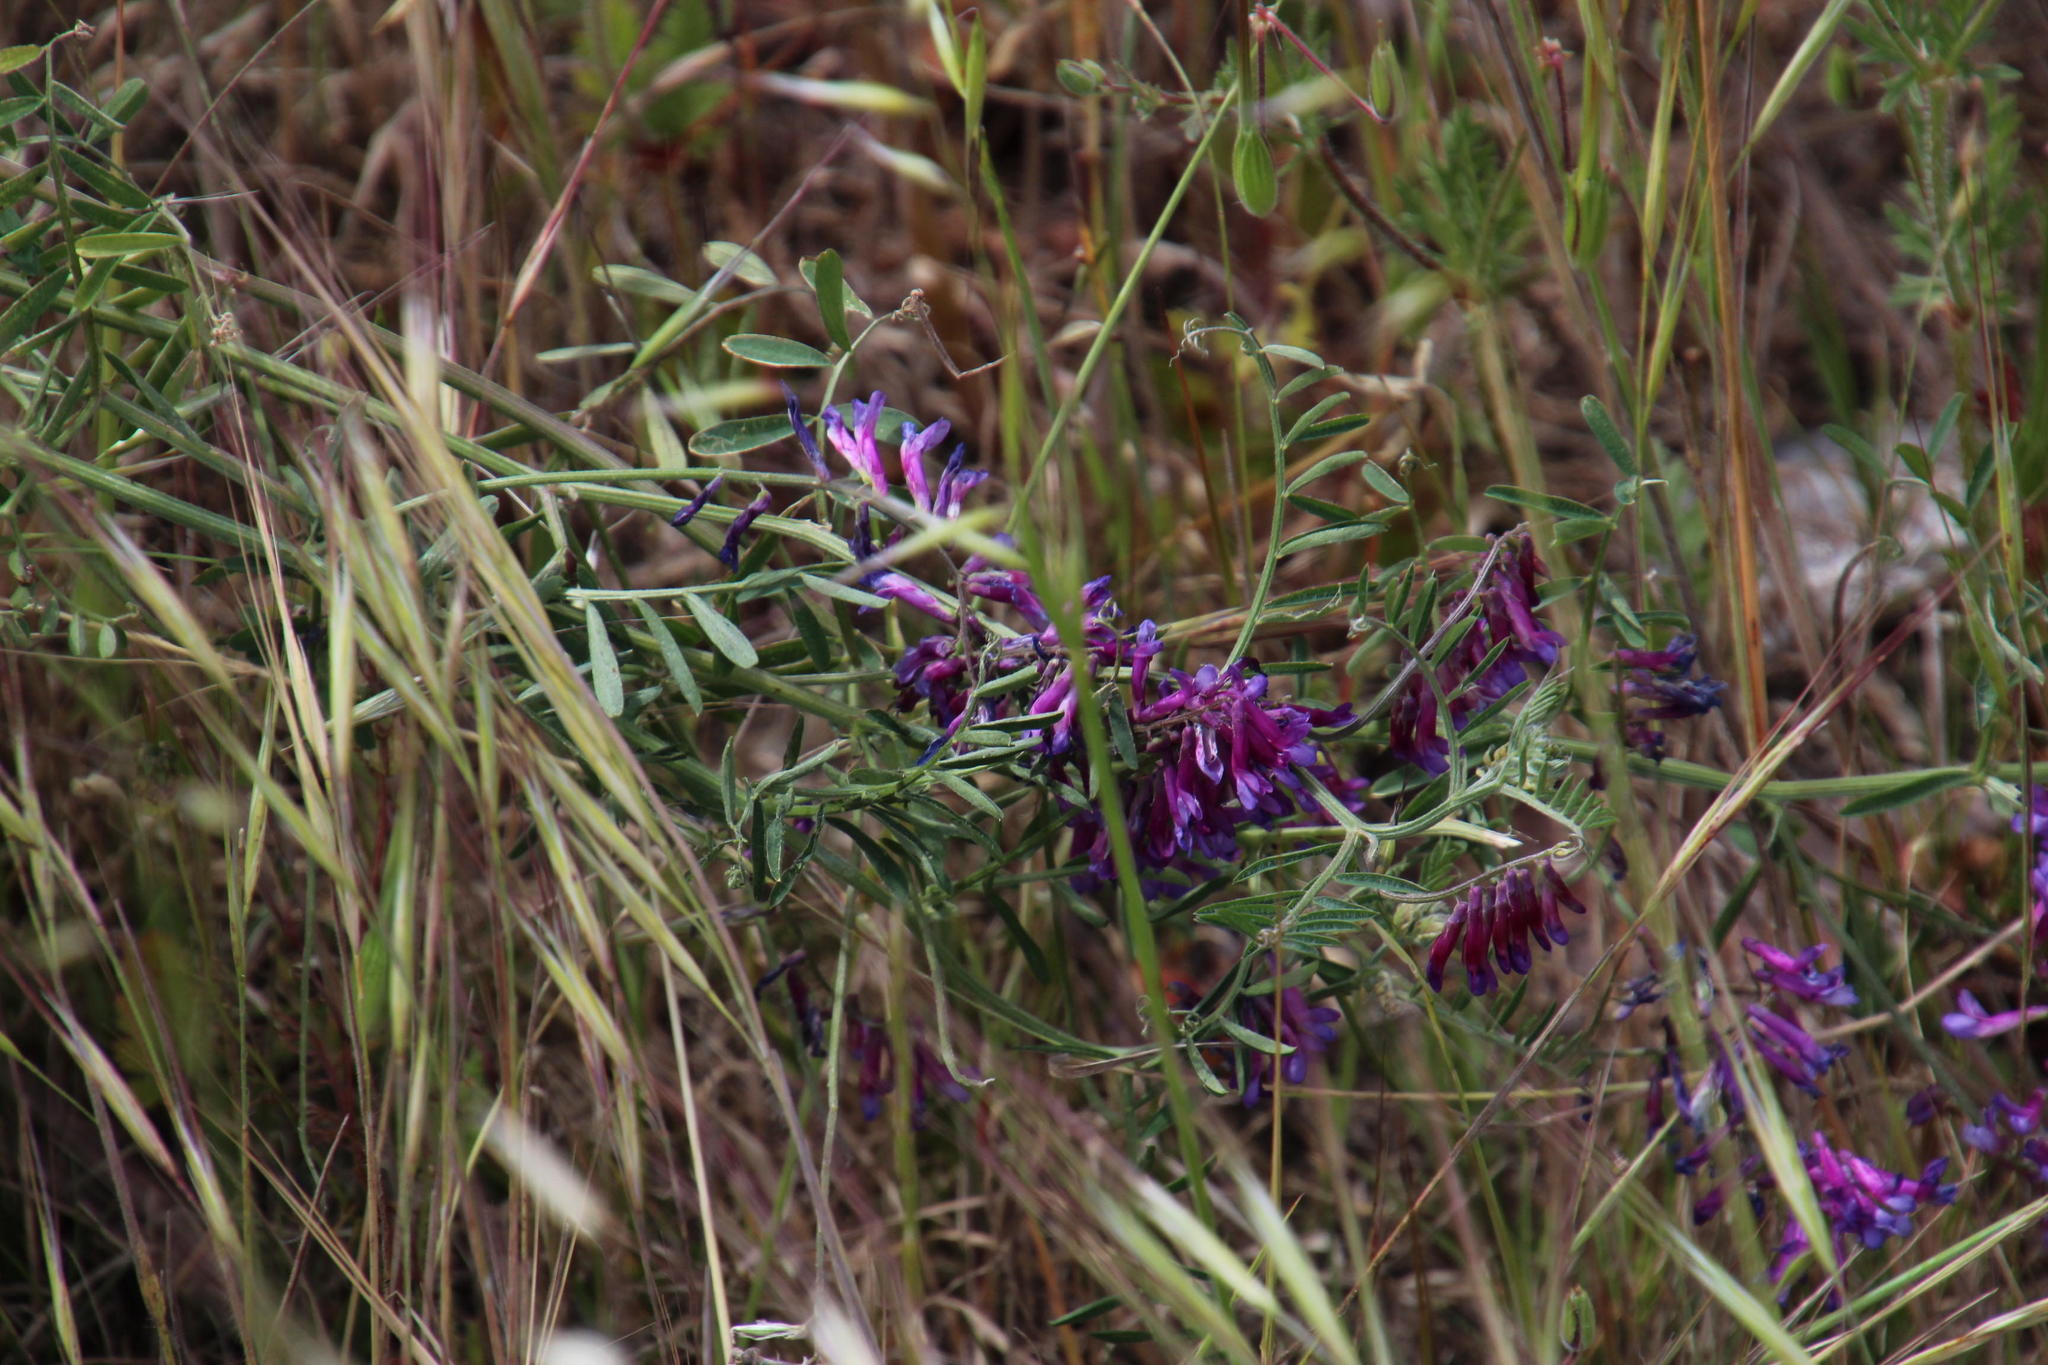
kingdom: Plantae
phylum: Tracheophyta
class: Magnoliopsida
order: Fabales
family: Fabaceae
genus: Vicia
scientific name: Vicia eriocarpa
